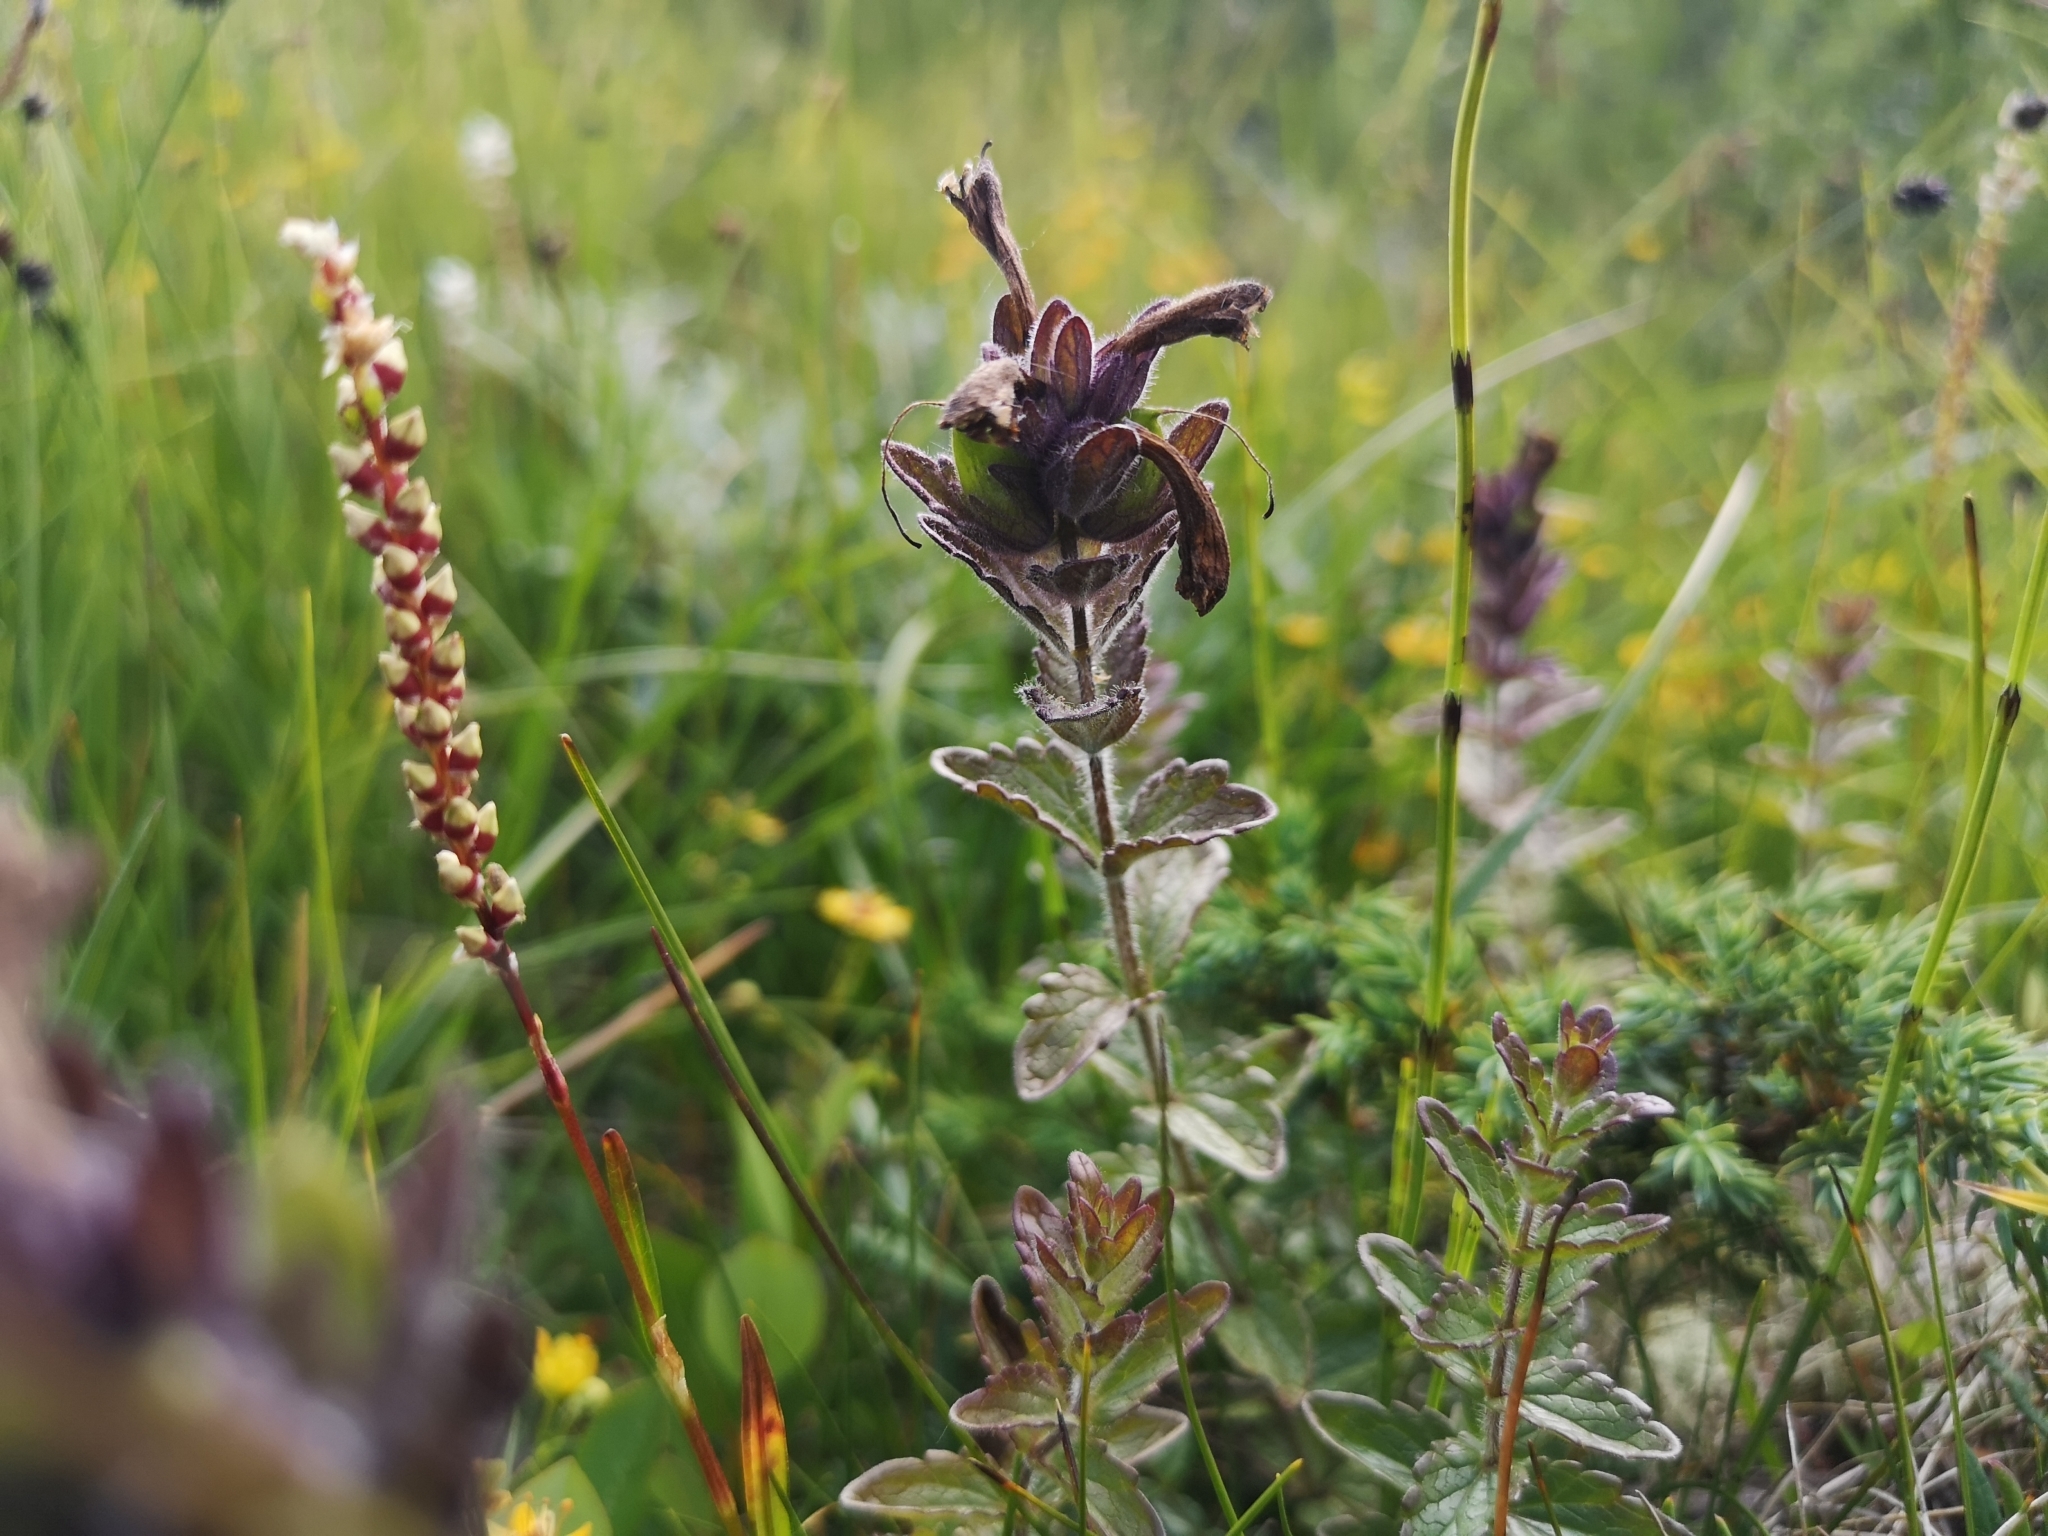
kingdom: Plantae
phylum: Tracheophyta
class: Magnoliopsida
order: Lamiales
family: Orobanchaceae
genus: Bartsia
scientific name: Bartsia alpina
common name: Alpine bartsia
